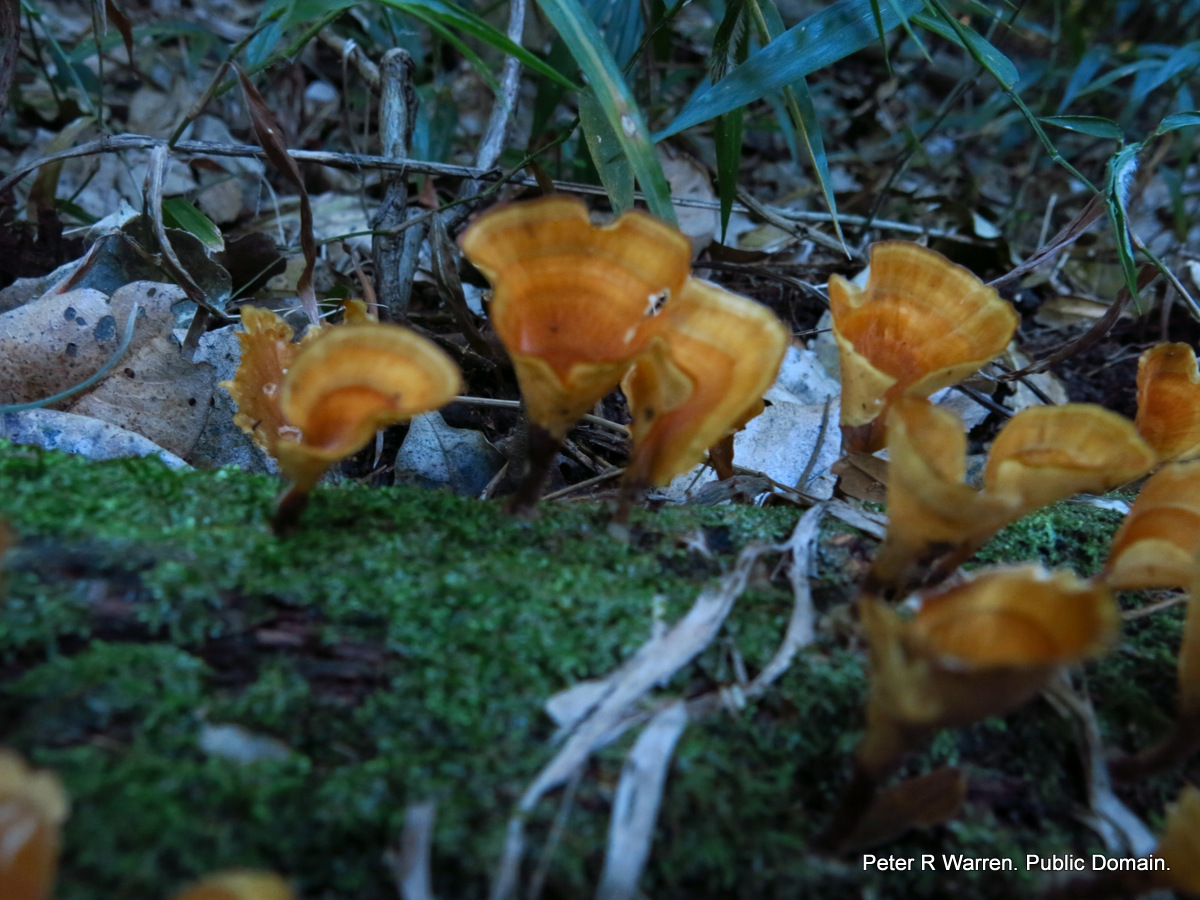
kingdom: Fungi
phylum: Basidiomycota
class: Agaricomycetes
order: Polyporales
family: Podoscyphaceae
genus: Podoscypha
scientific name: Podoscypha petalodes
